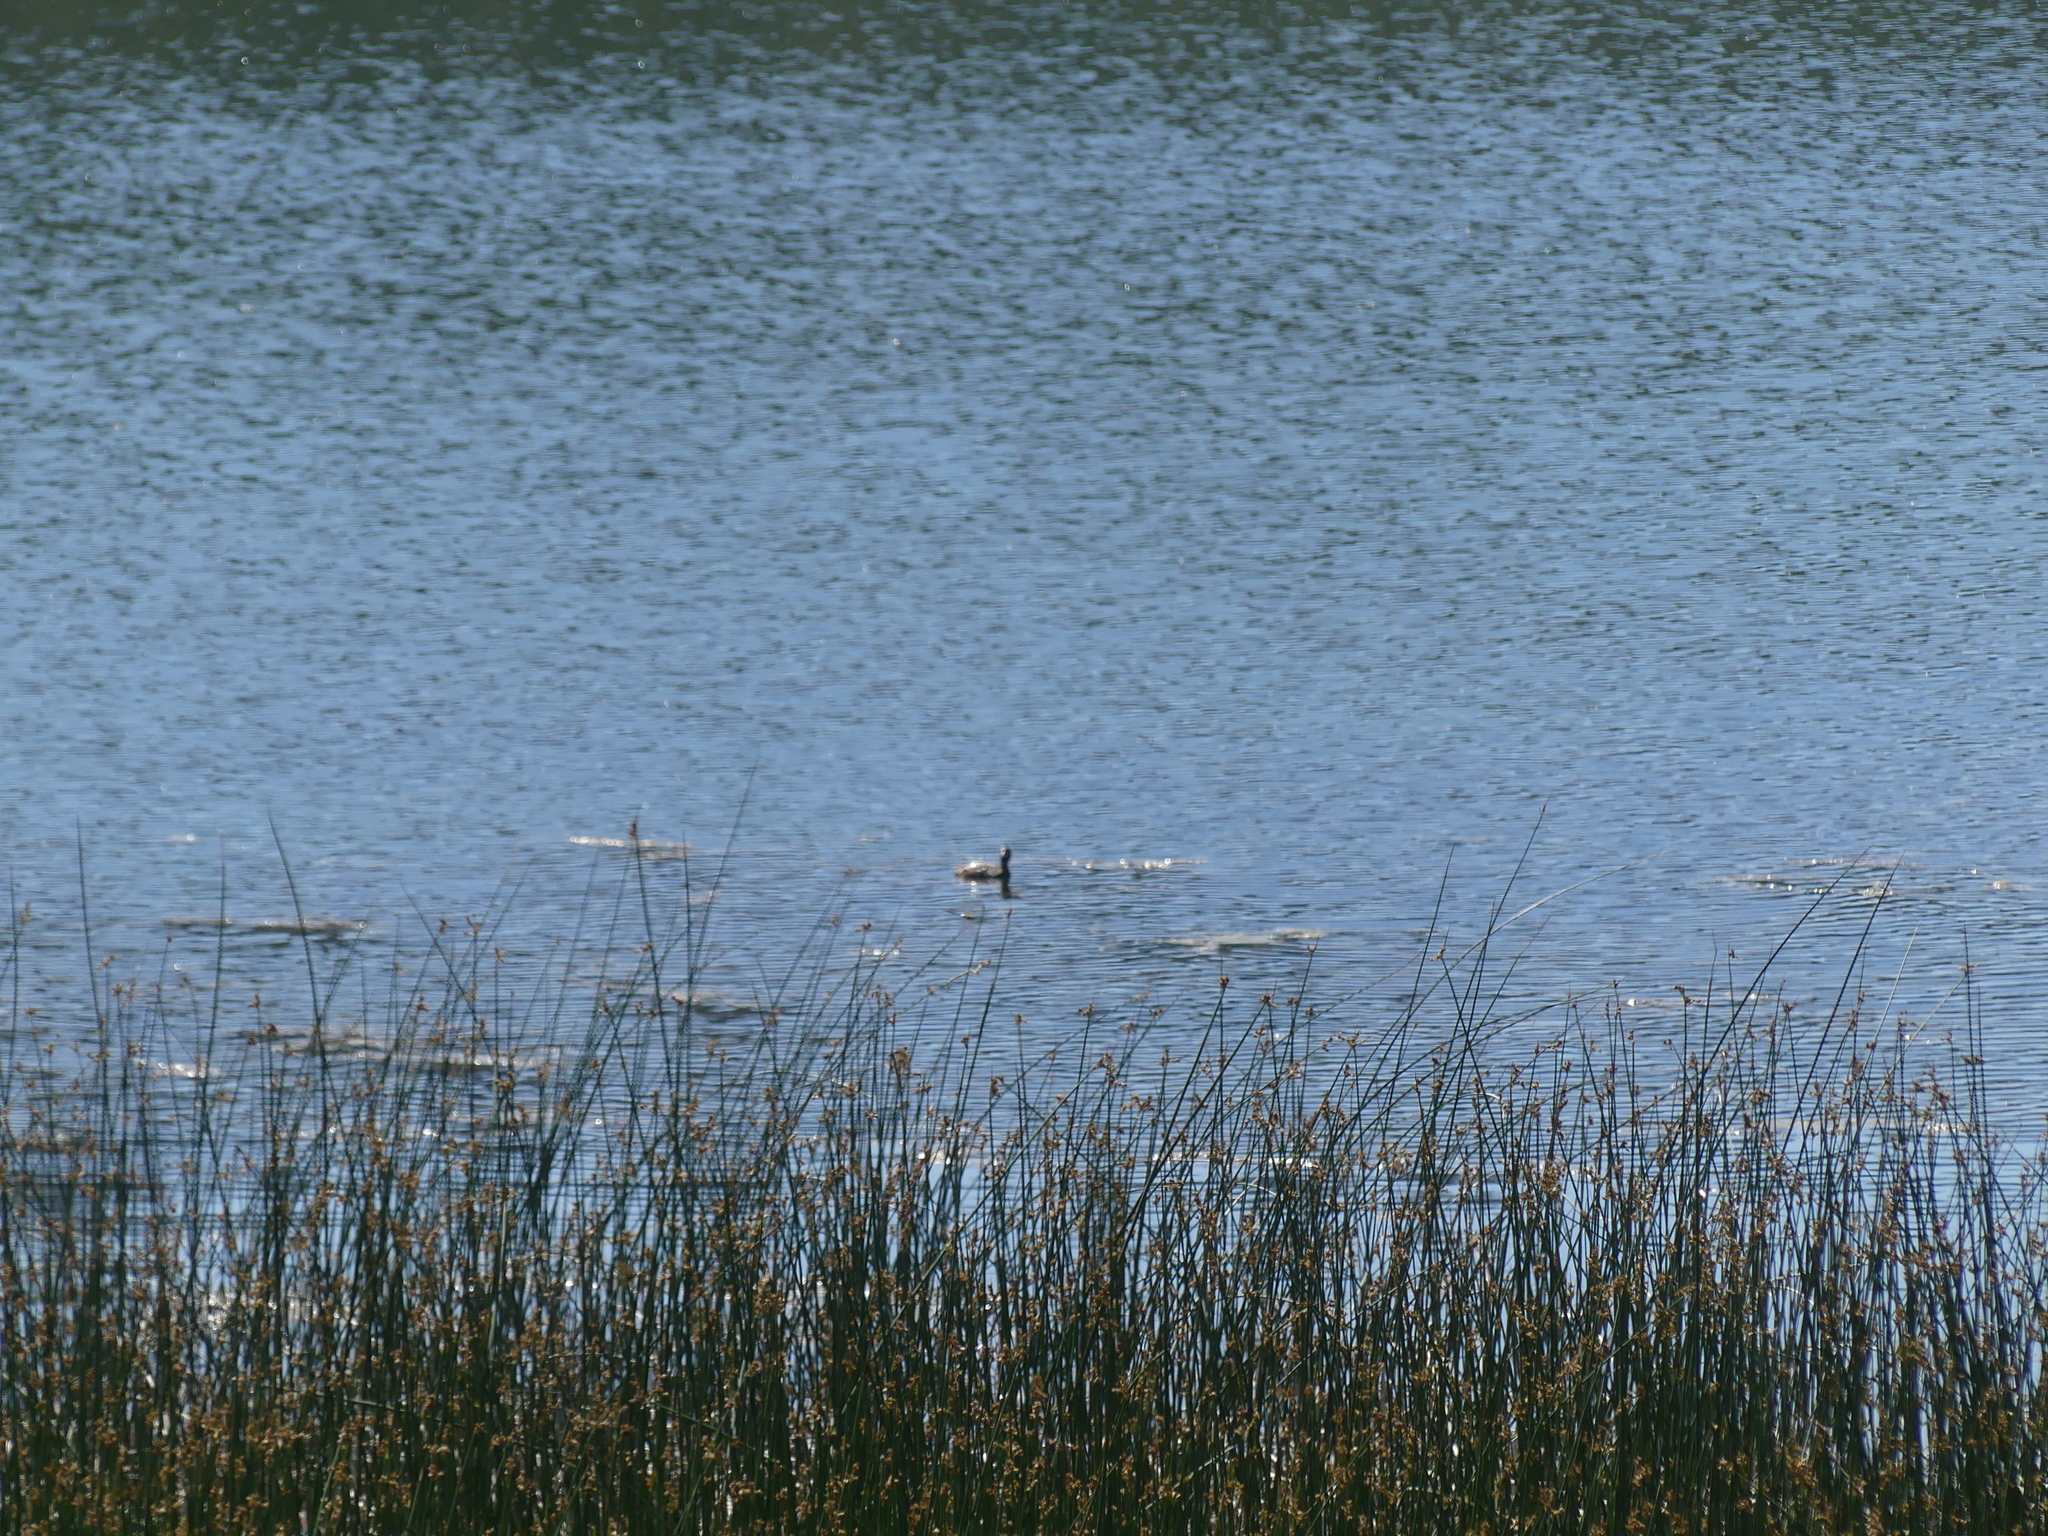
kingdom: Animalia
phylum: Chordata
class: Aves
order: Podicipediformes
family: Podicipedidae
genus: Podilymbus
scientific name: Podilymbus podiceps
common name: Pied-billed grebe
